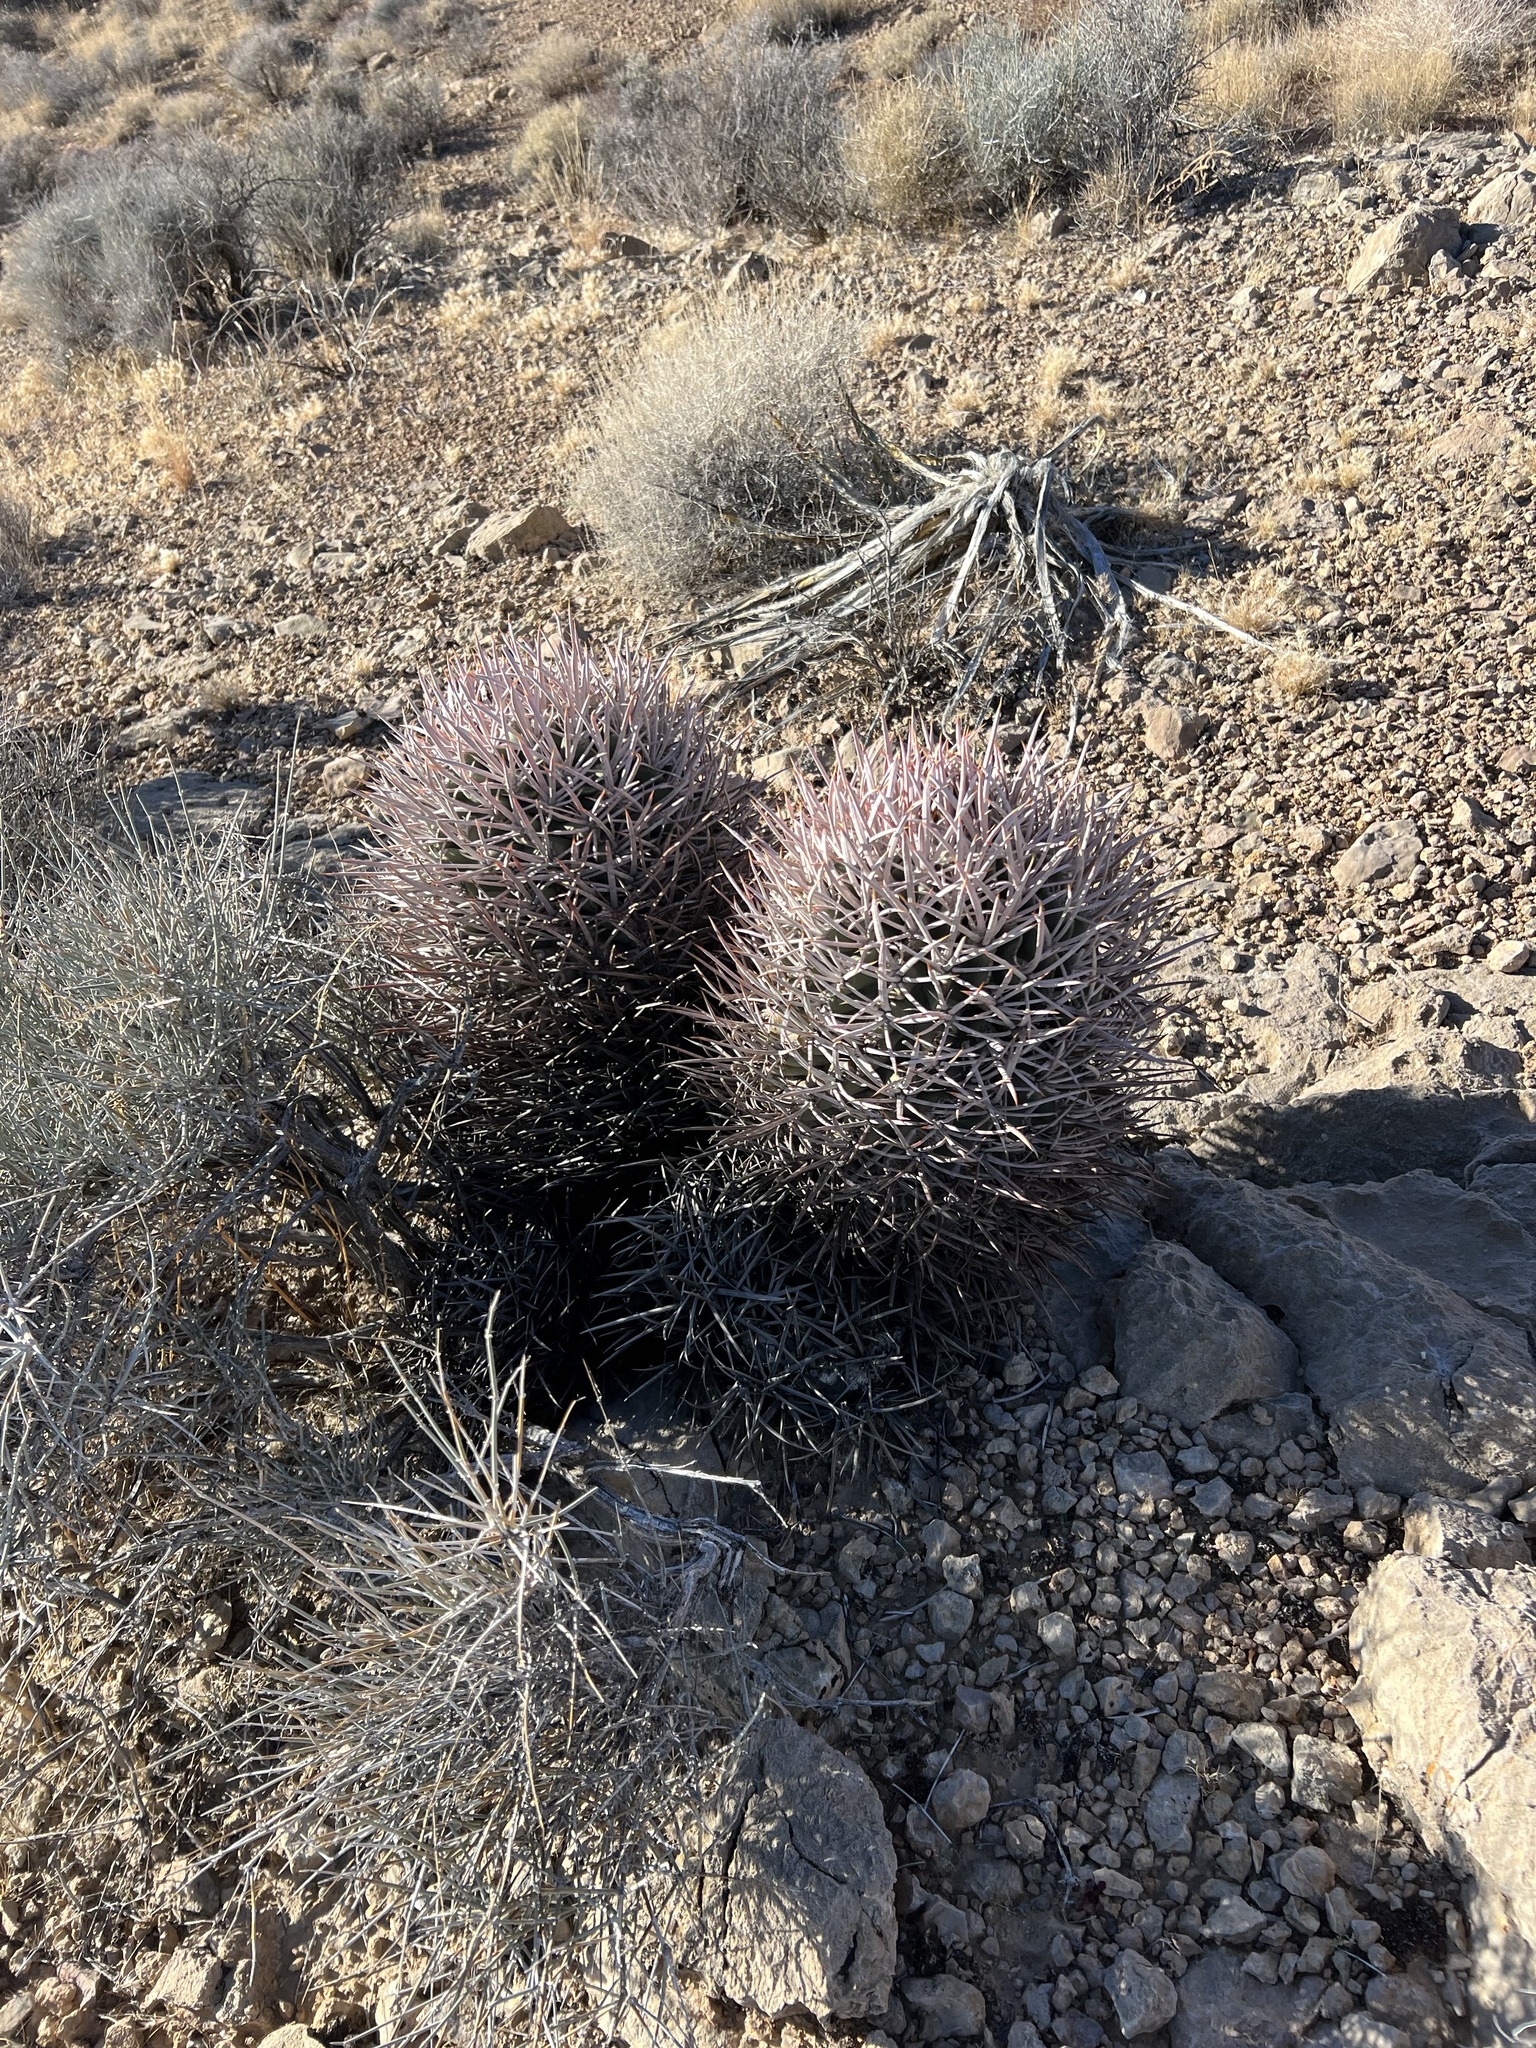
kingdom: Plantae
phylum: Tracheophyta
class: Magnoliopsida
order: Caryophyllales
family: Cactaceae
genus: Echinocactus
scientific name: Echinocactus polycephalus
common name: Cottontop cactus
